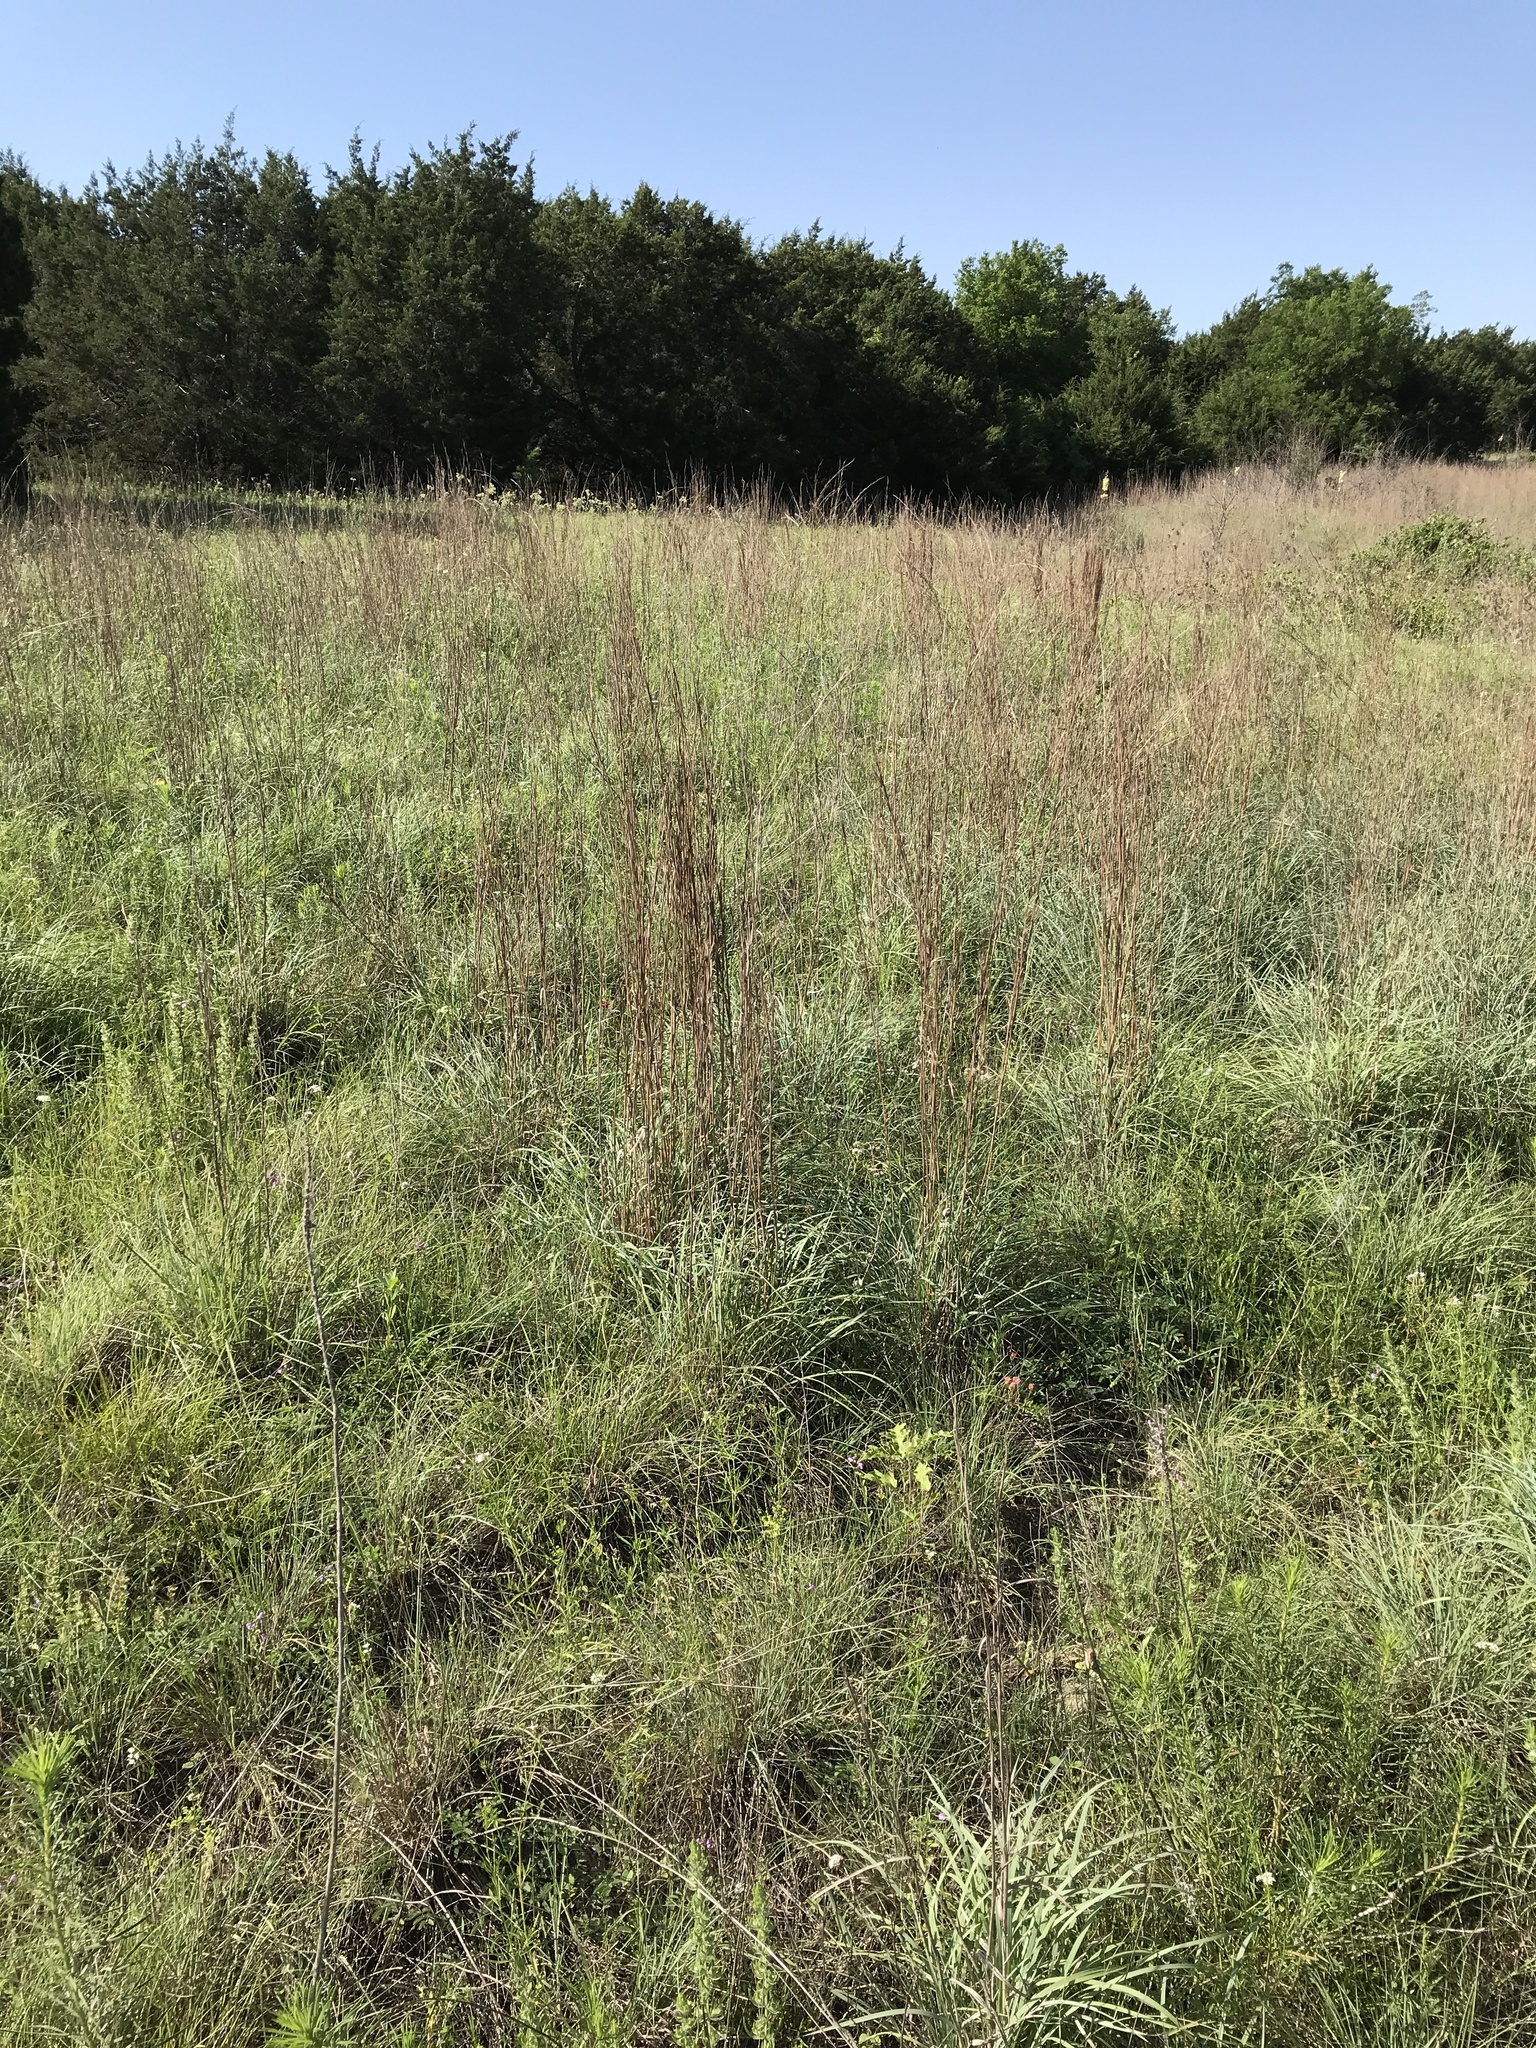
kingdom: Plantae
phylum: Tracheophyta
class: Liliopsida
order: Poales
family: Poaceae
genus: Schizachyrium
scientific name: Schizachyrium scoparium
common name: Little bluestem
